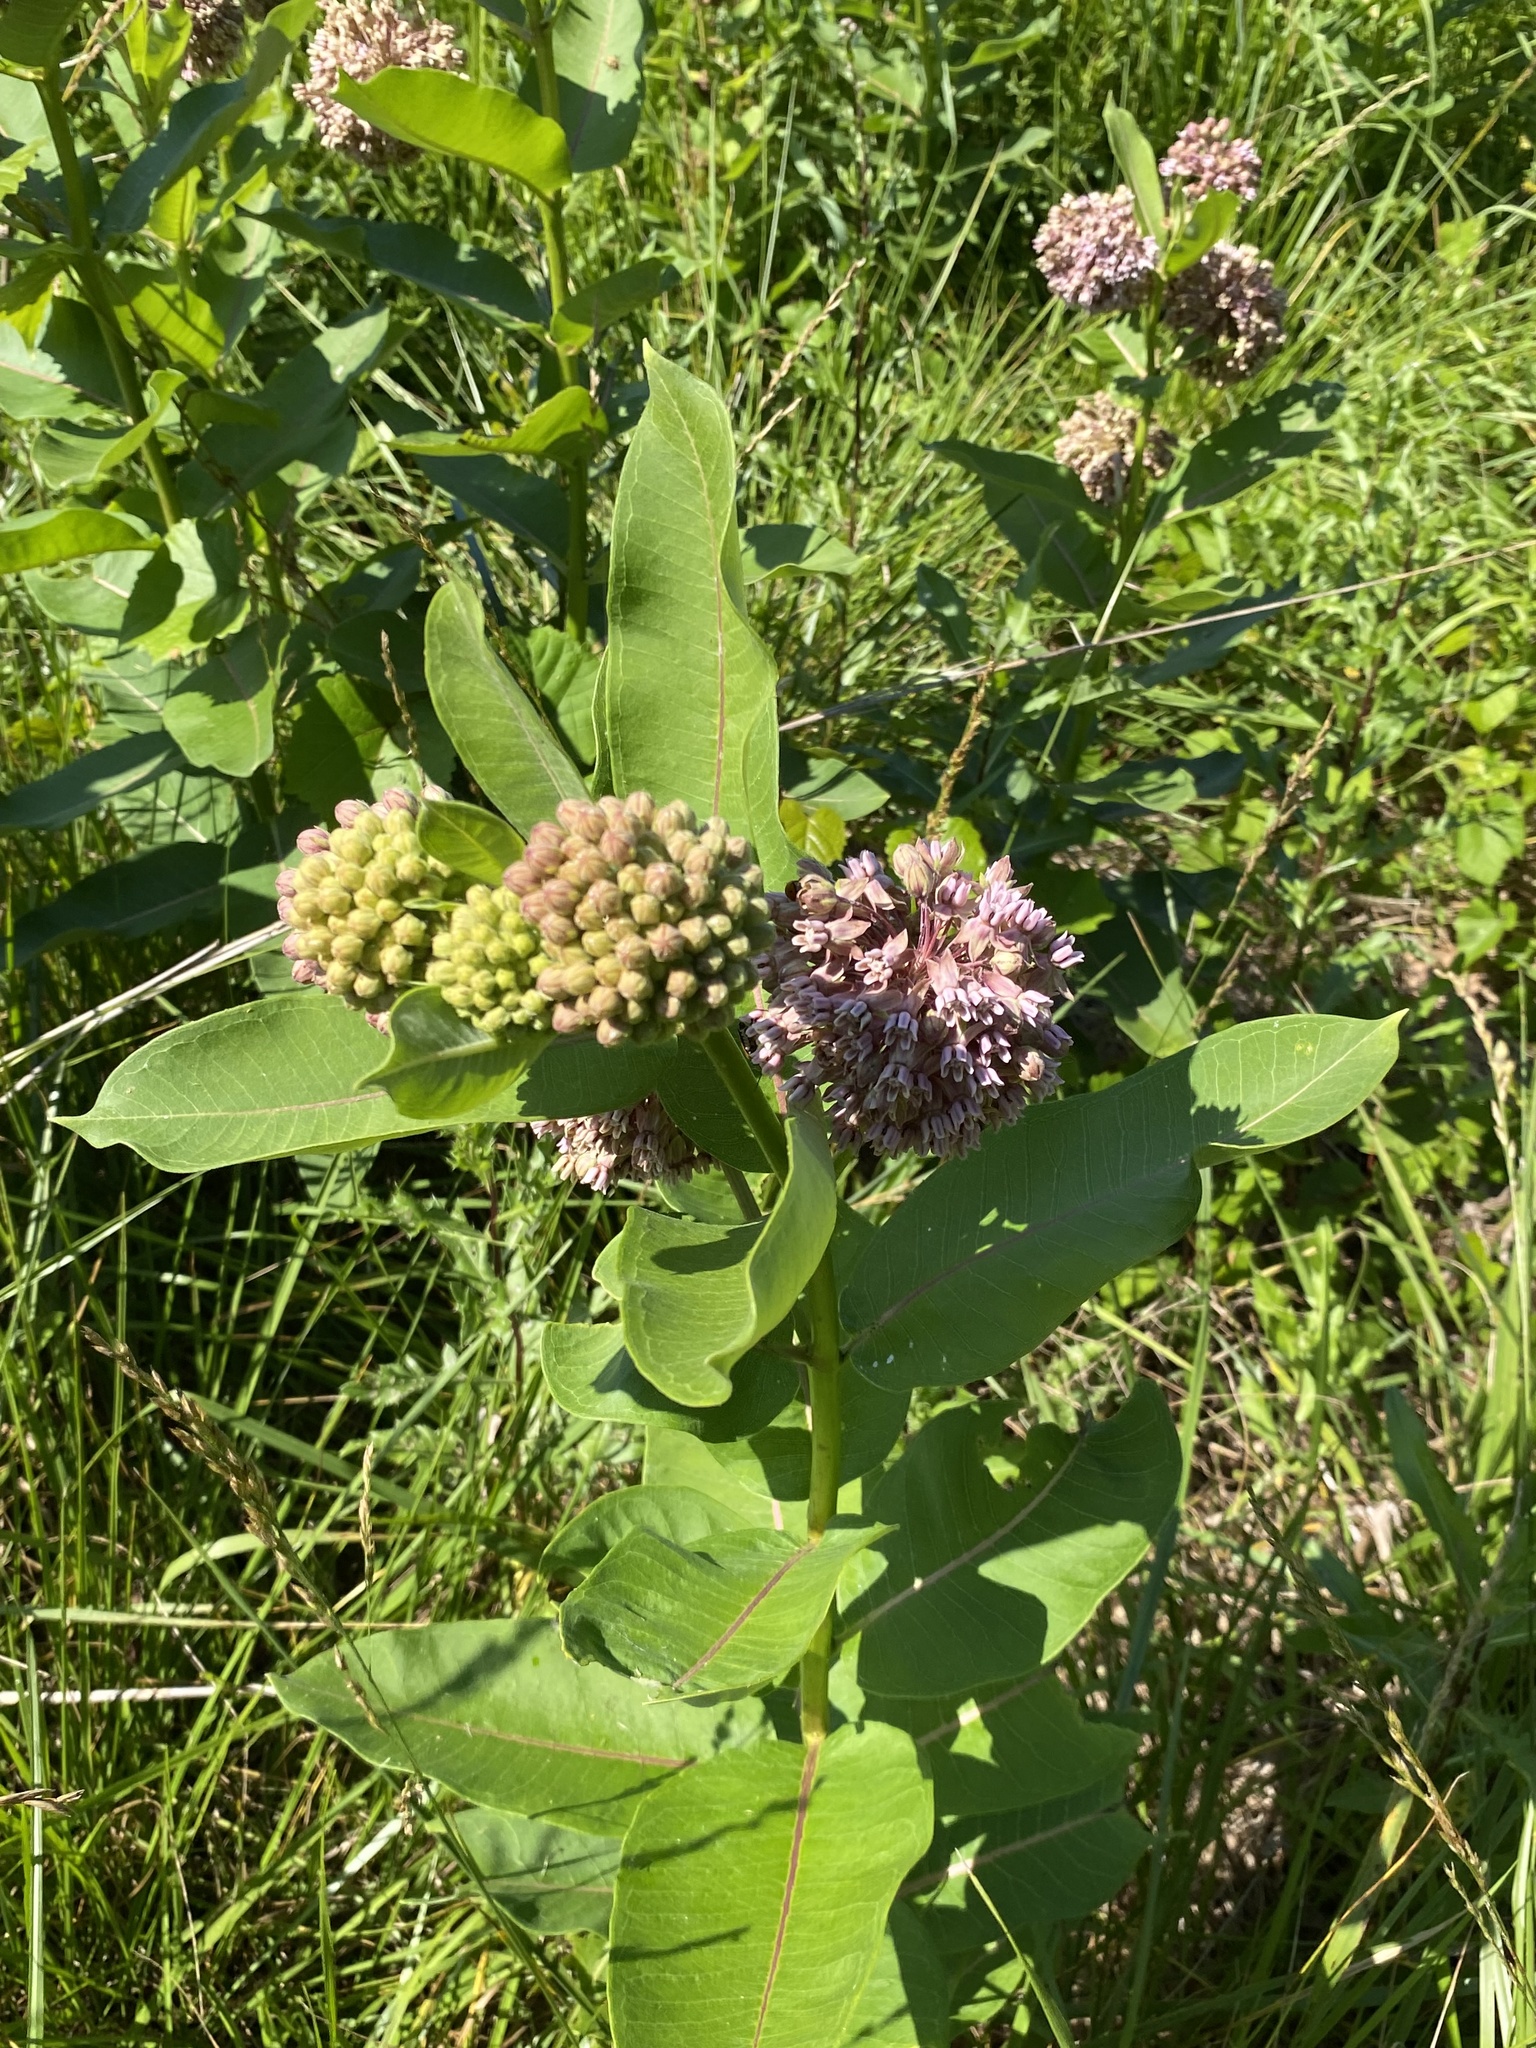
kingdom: Plantae
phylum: Tracheophyta
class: Magnoliopsida
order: Gentianales
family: Apocynaceae
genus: Asclepias
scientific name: Asclepias syriaca
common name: Common milkweed
